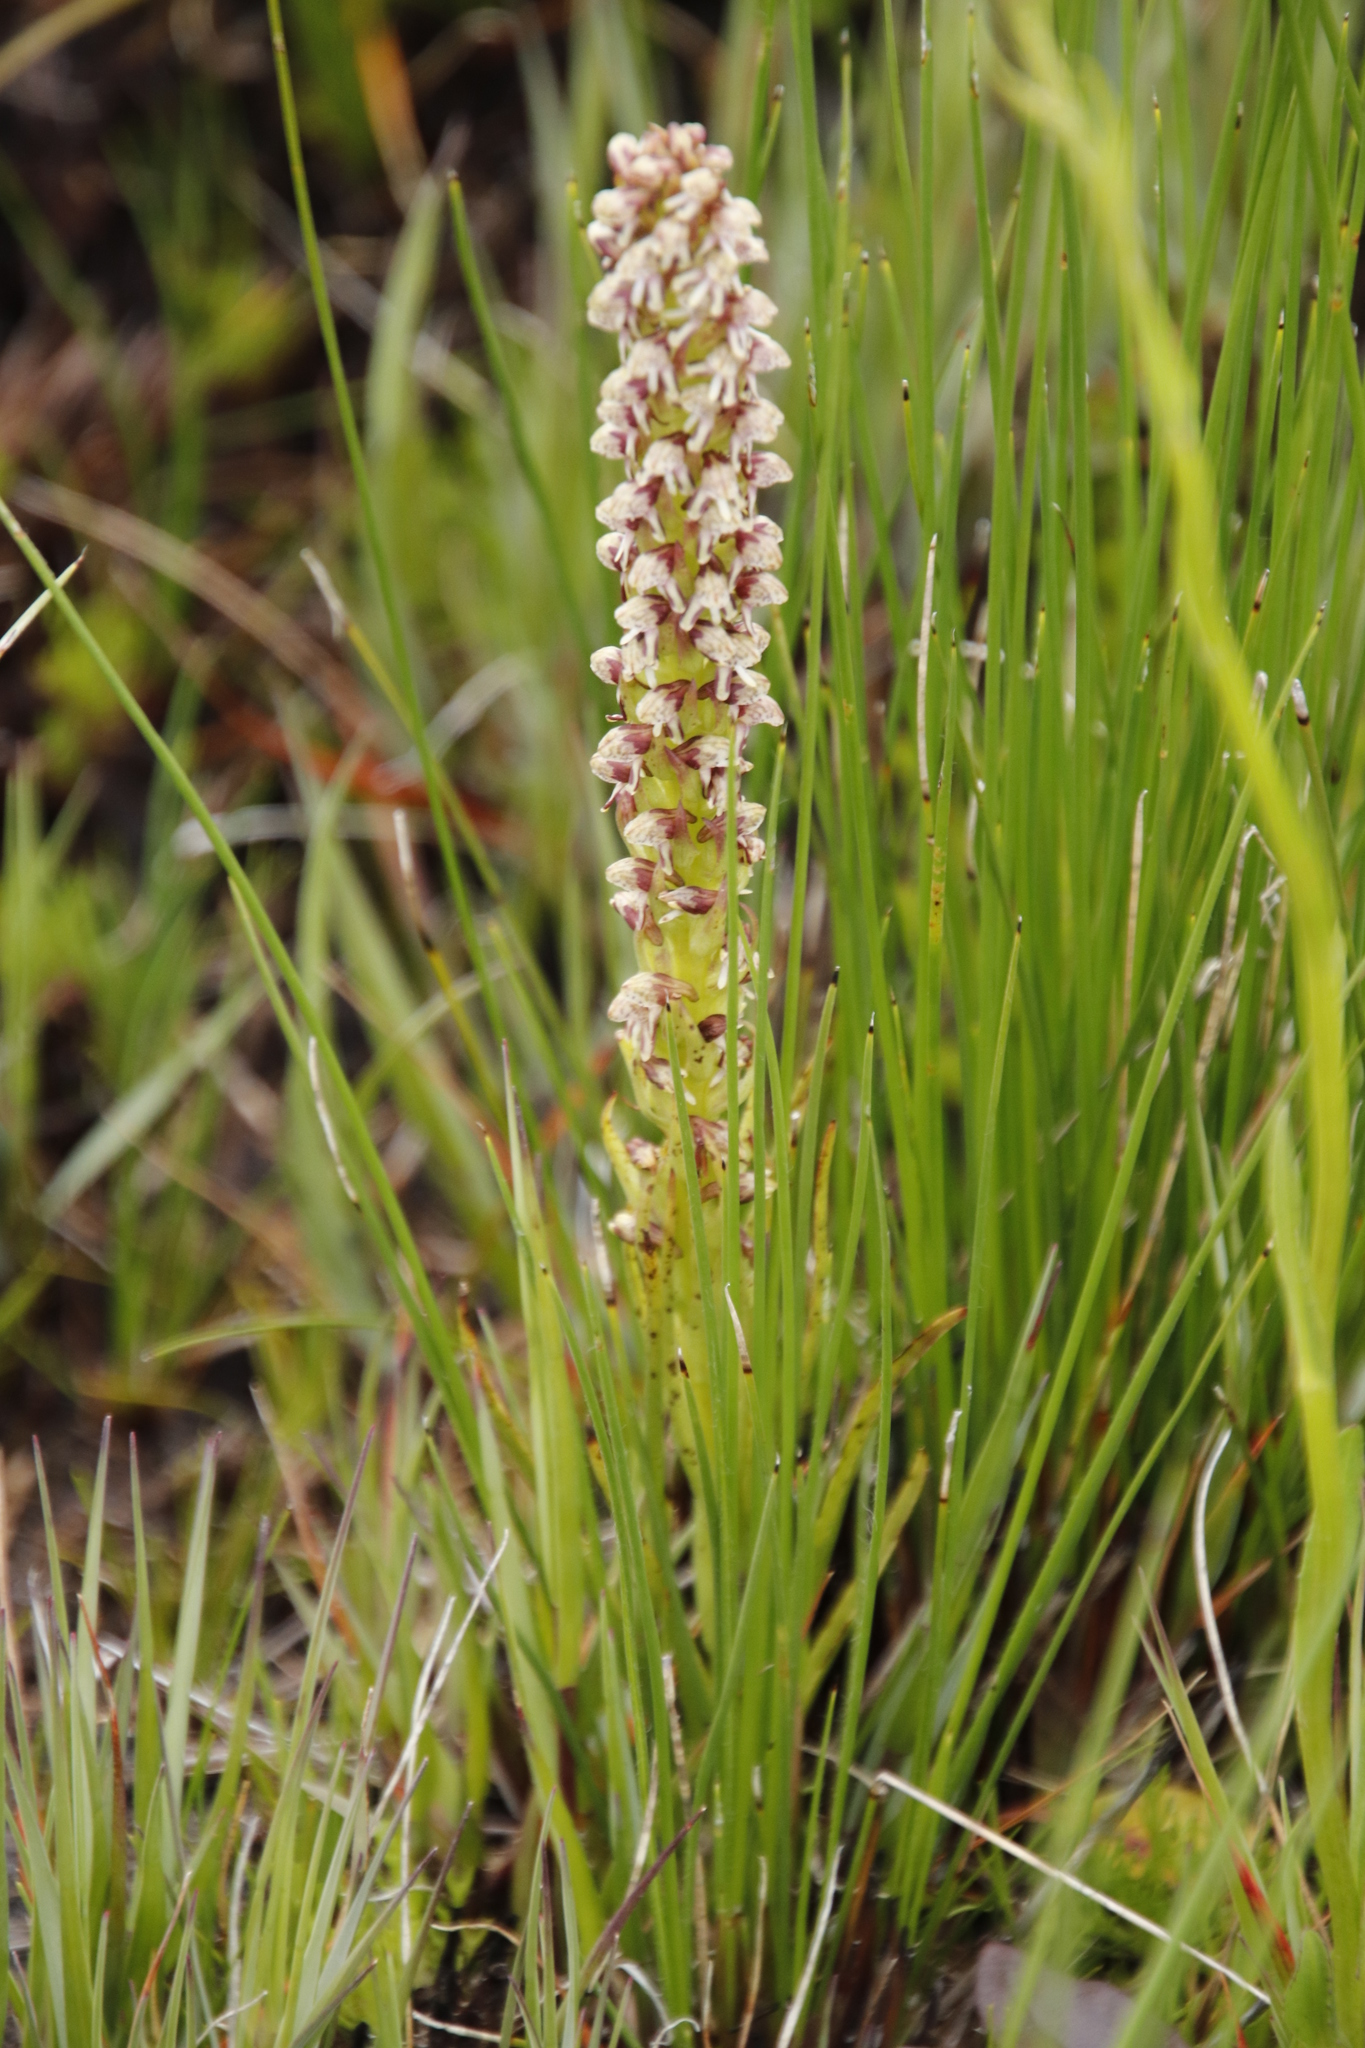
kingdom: Plantae
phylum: Tracheophyta
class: Liliopsida
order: Asparagales
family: Orchidaceae
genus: Disa
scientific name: Disa obtusa
